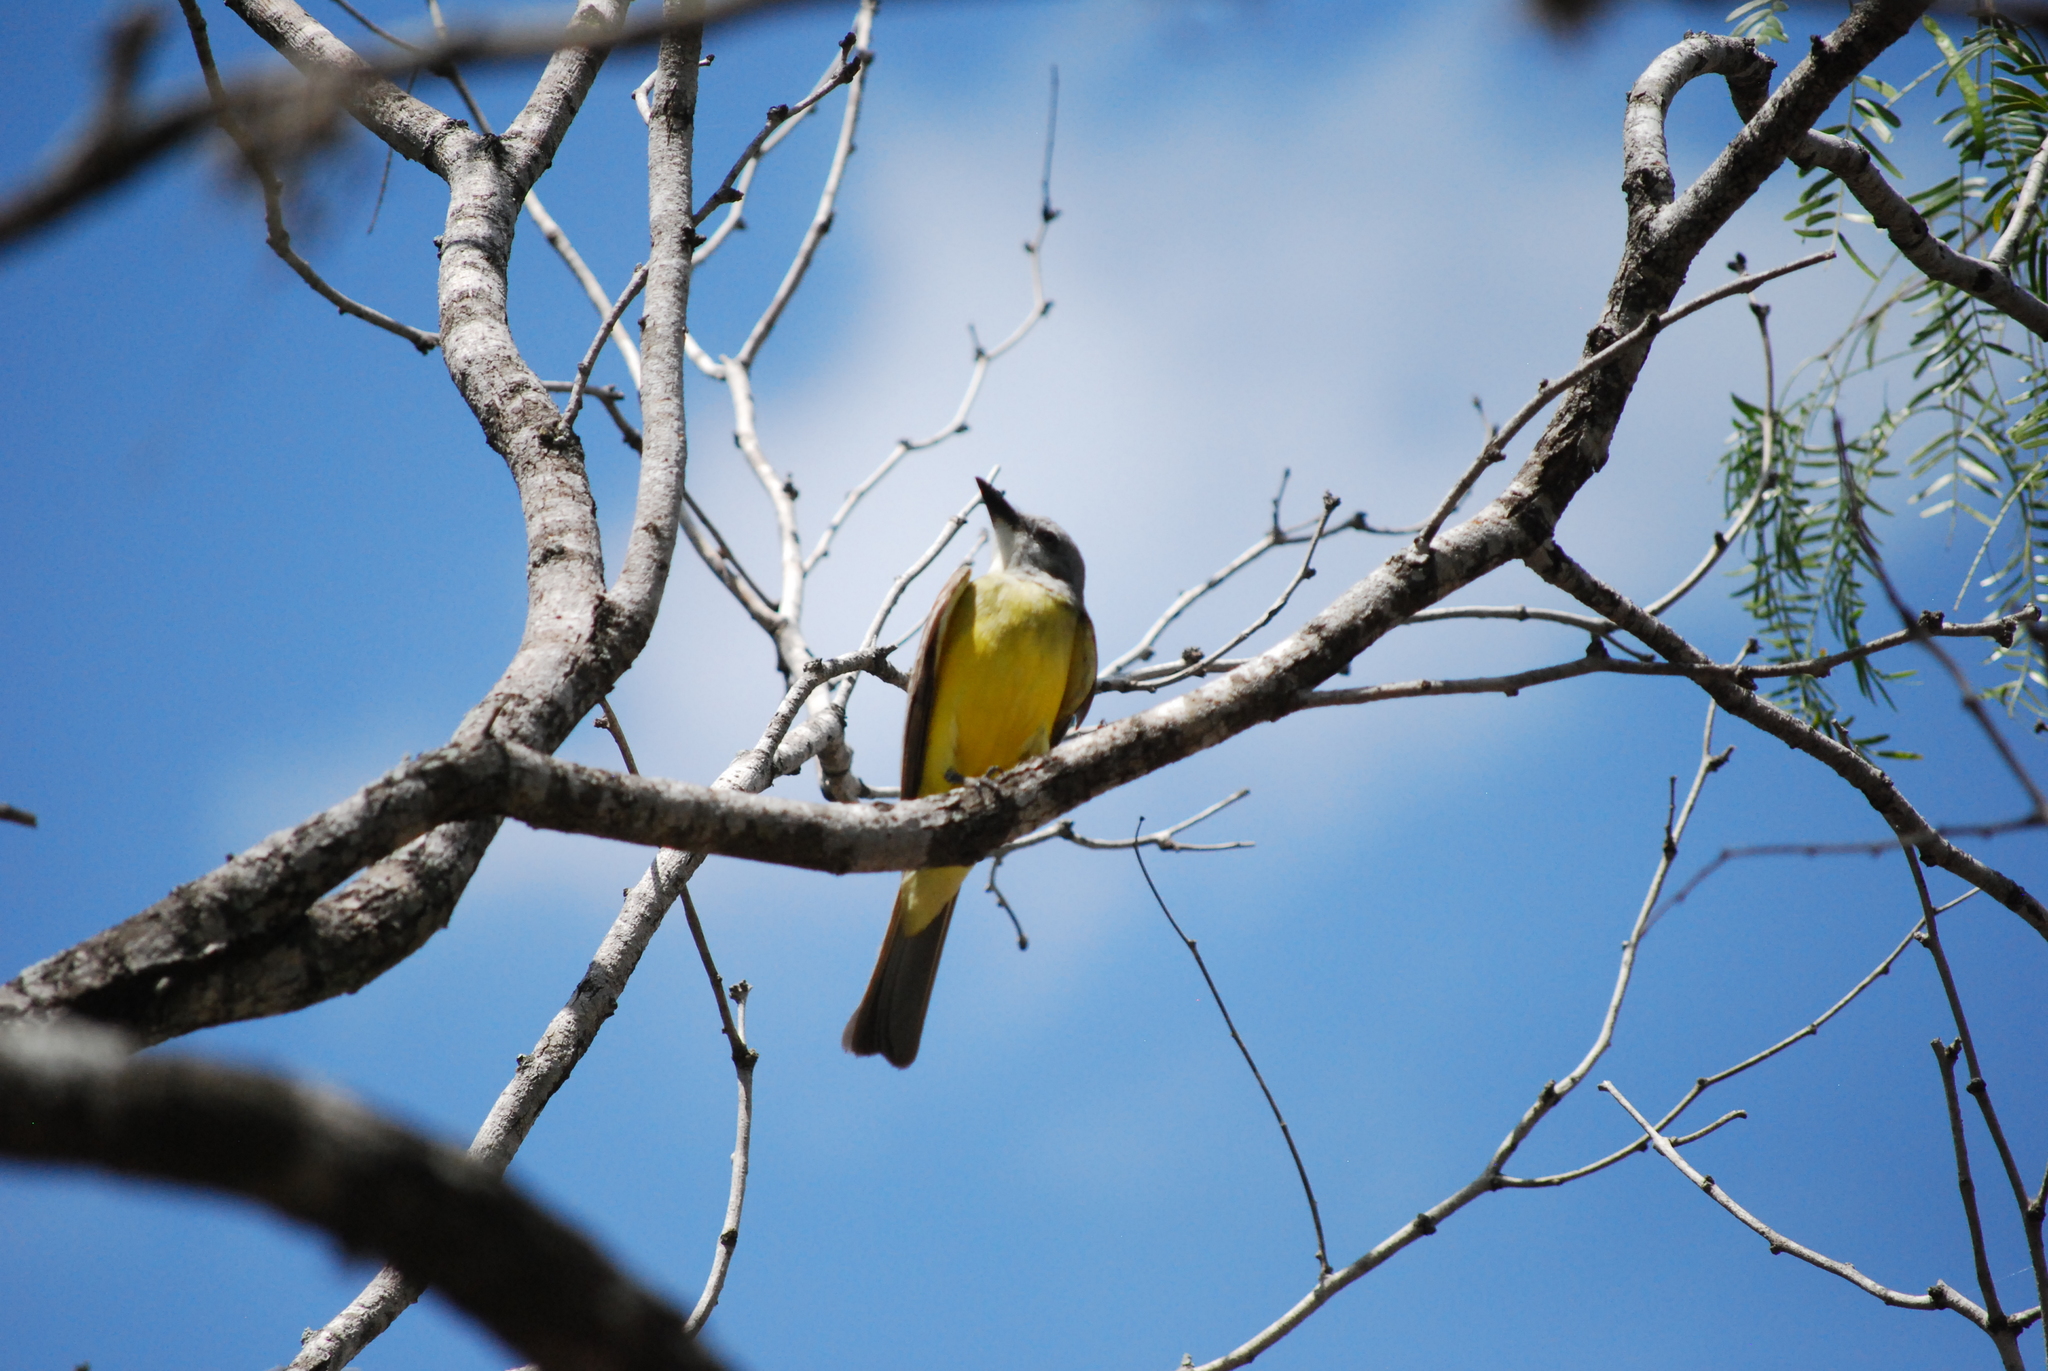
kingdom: Animalia
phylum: Chordata
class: Aves
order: Passeriformes
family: Tyrannidae
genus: Tyrannus
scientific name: Tyrannus
